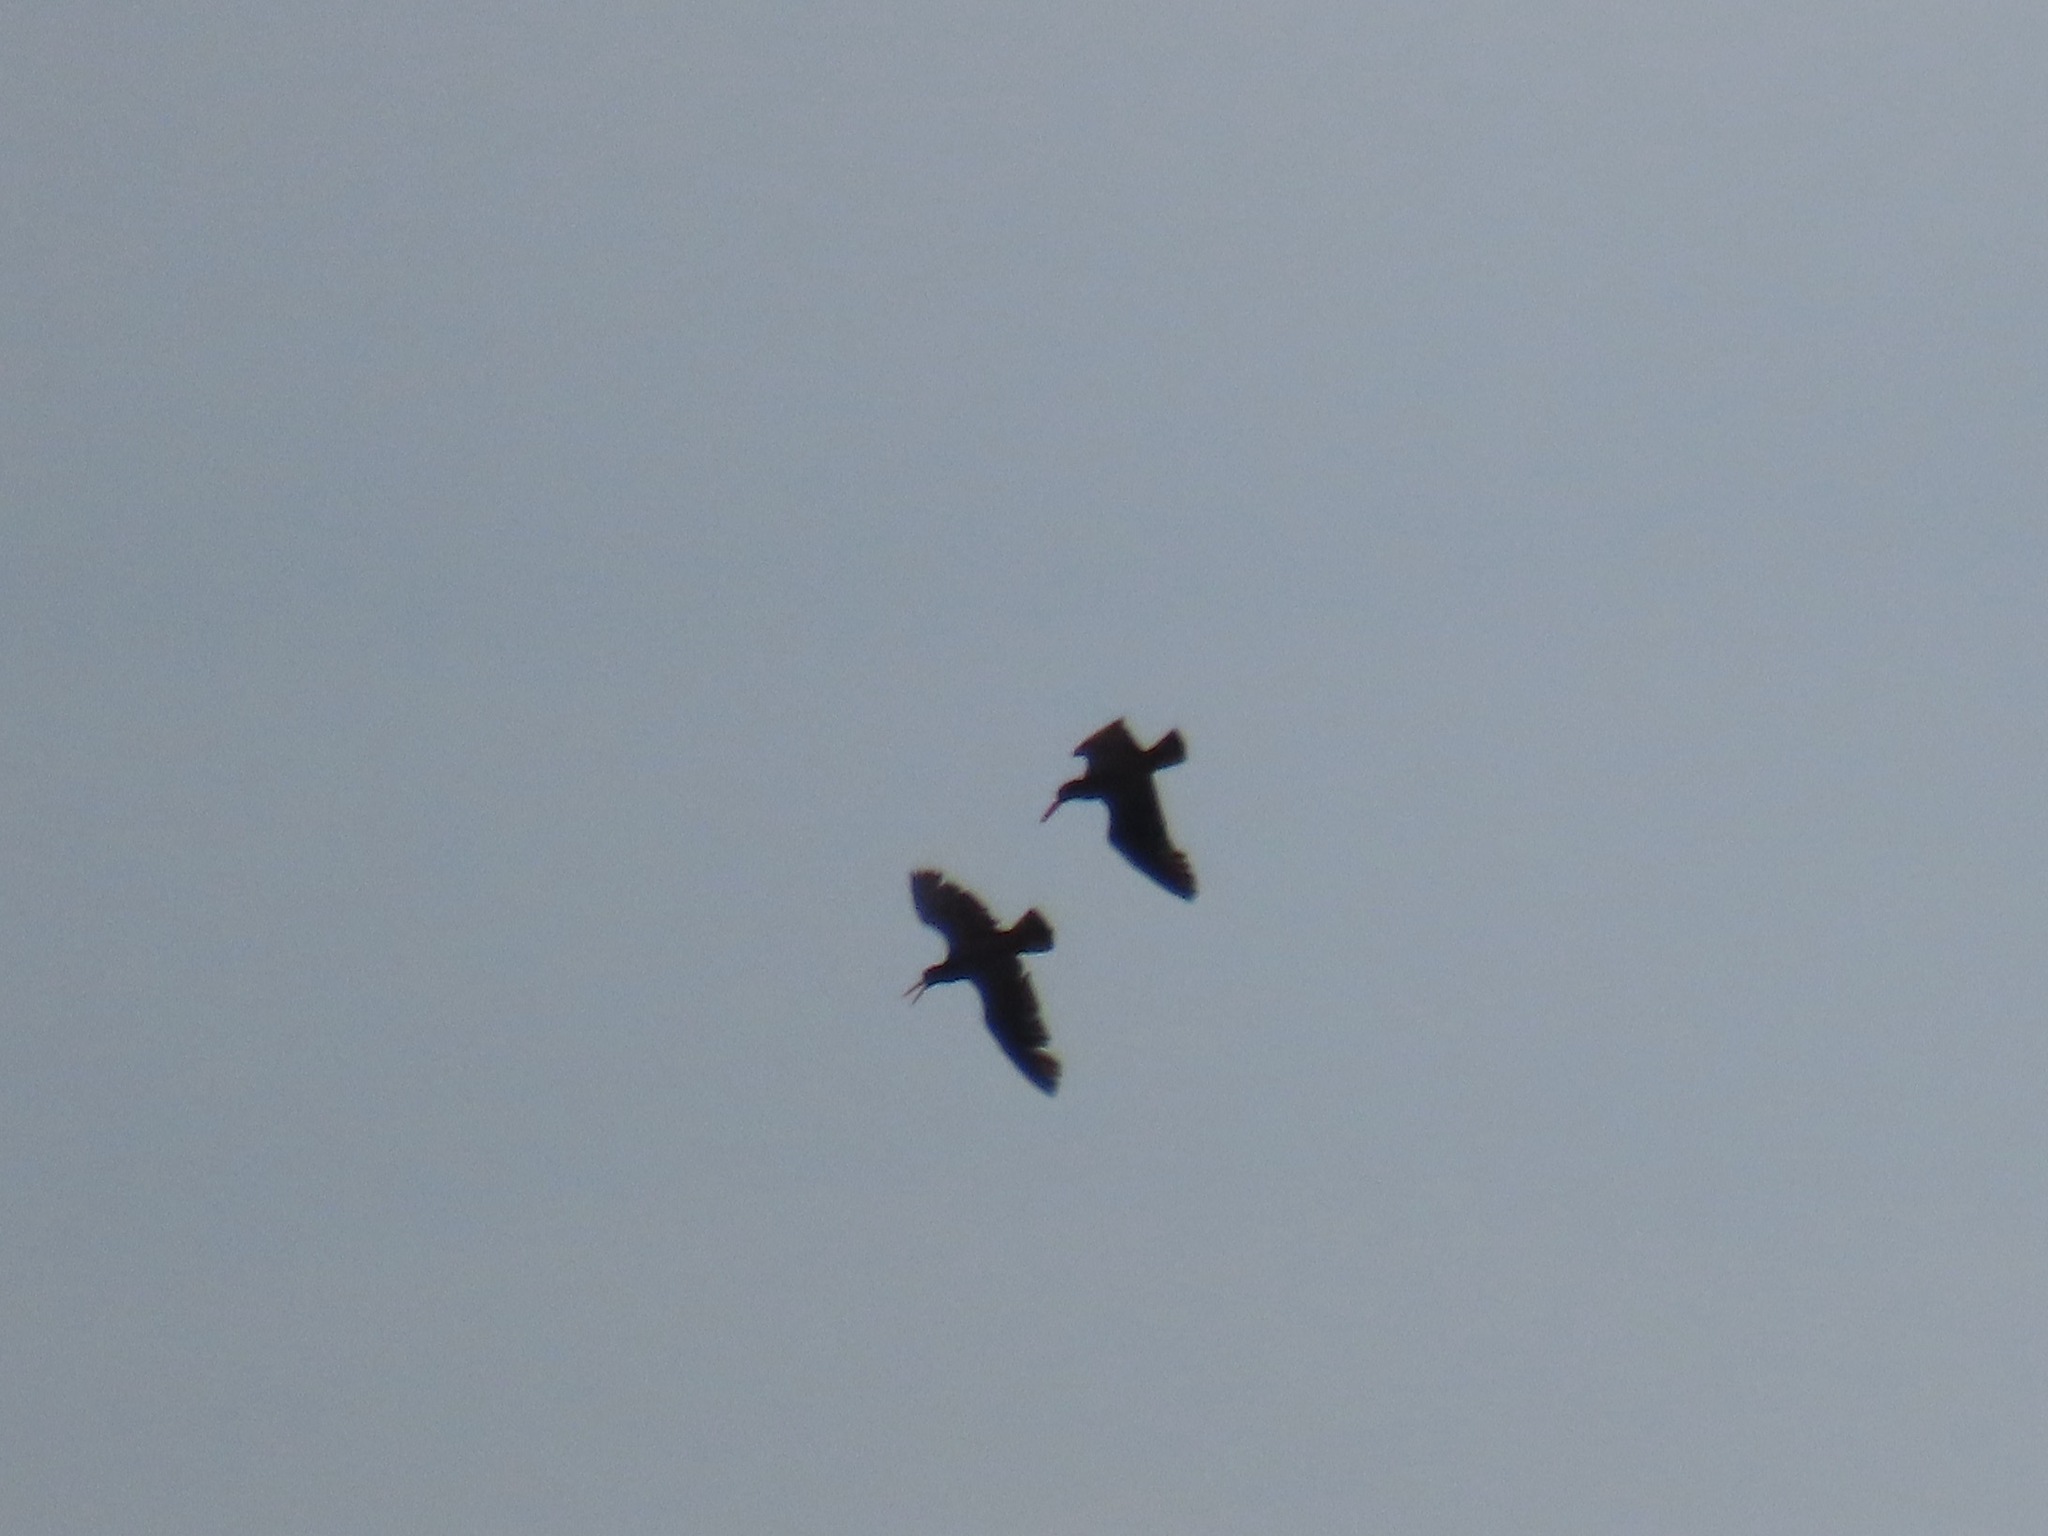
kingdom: Animalia
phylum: Chordata
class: Aves
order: Charadriiformes
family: Haematopodidae
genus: Haematopus
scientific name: Haematopus bachmani
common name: Black oystercatcher
